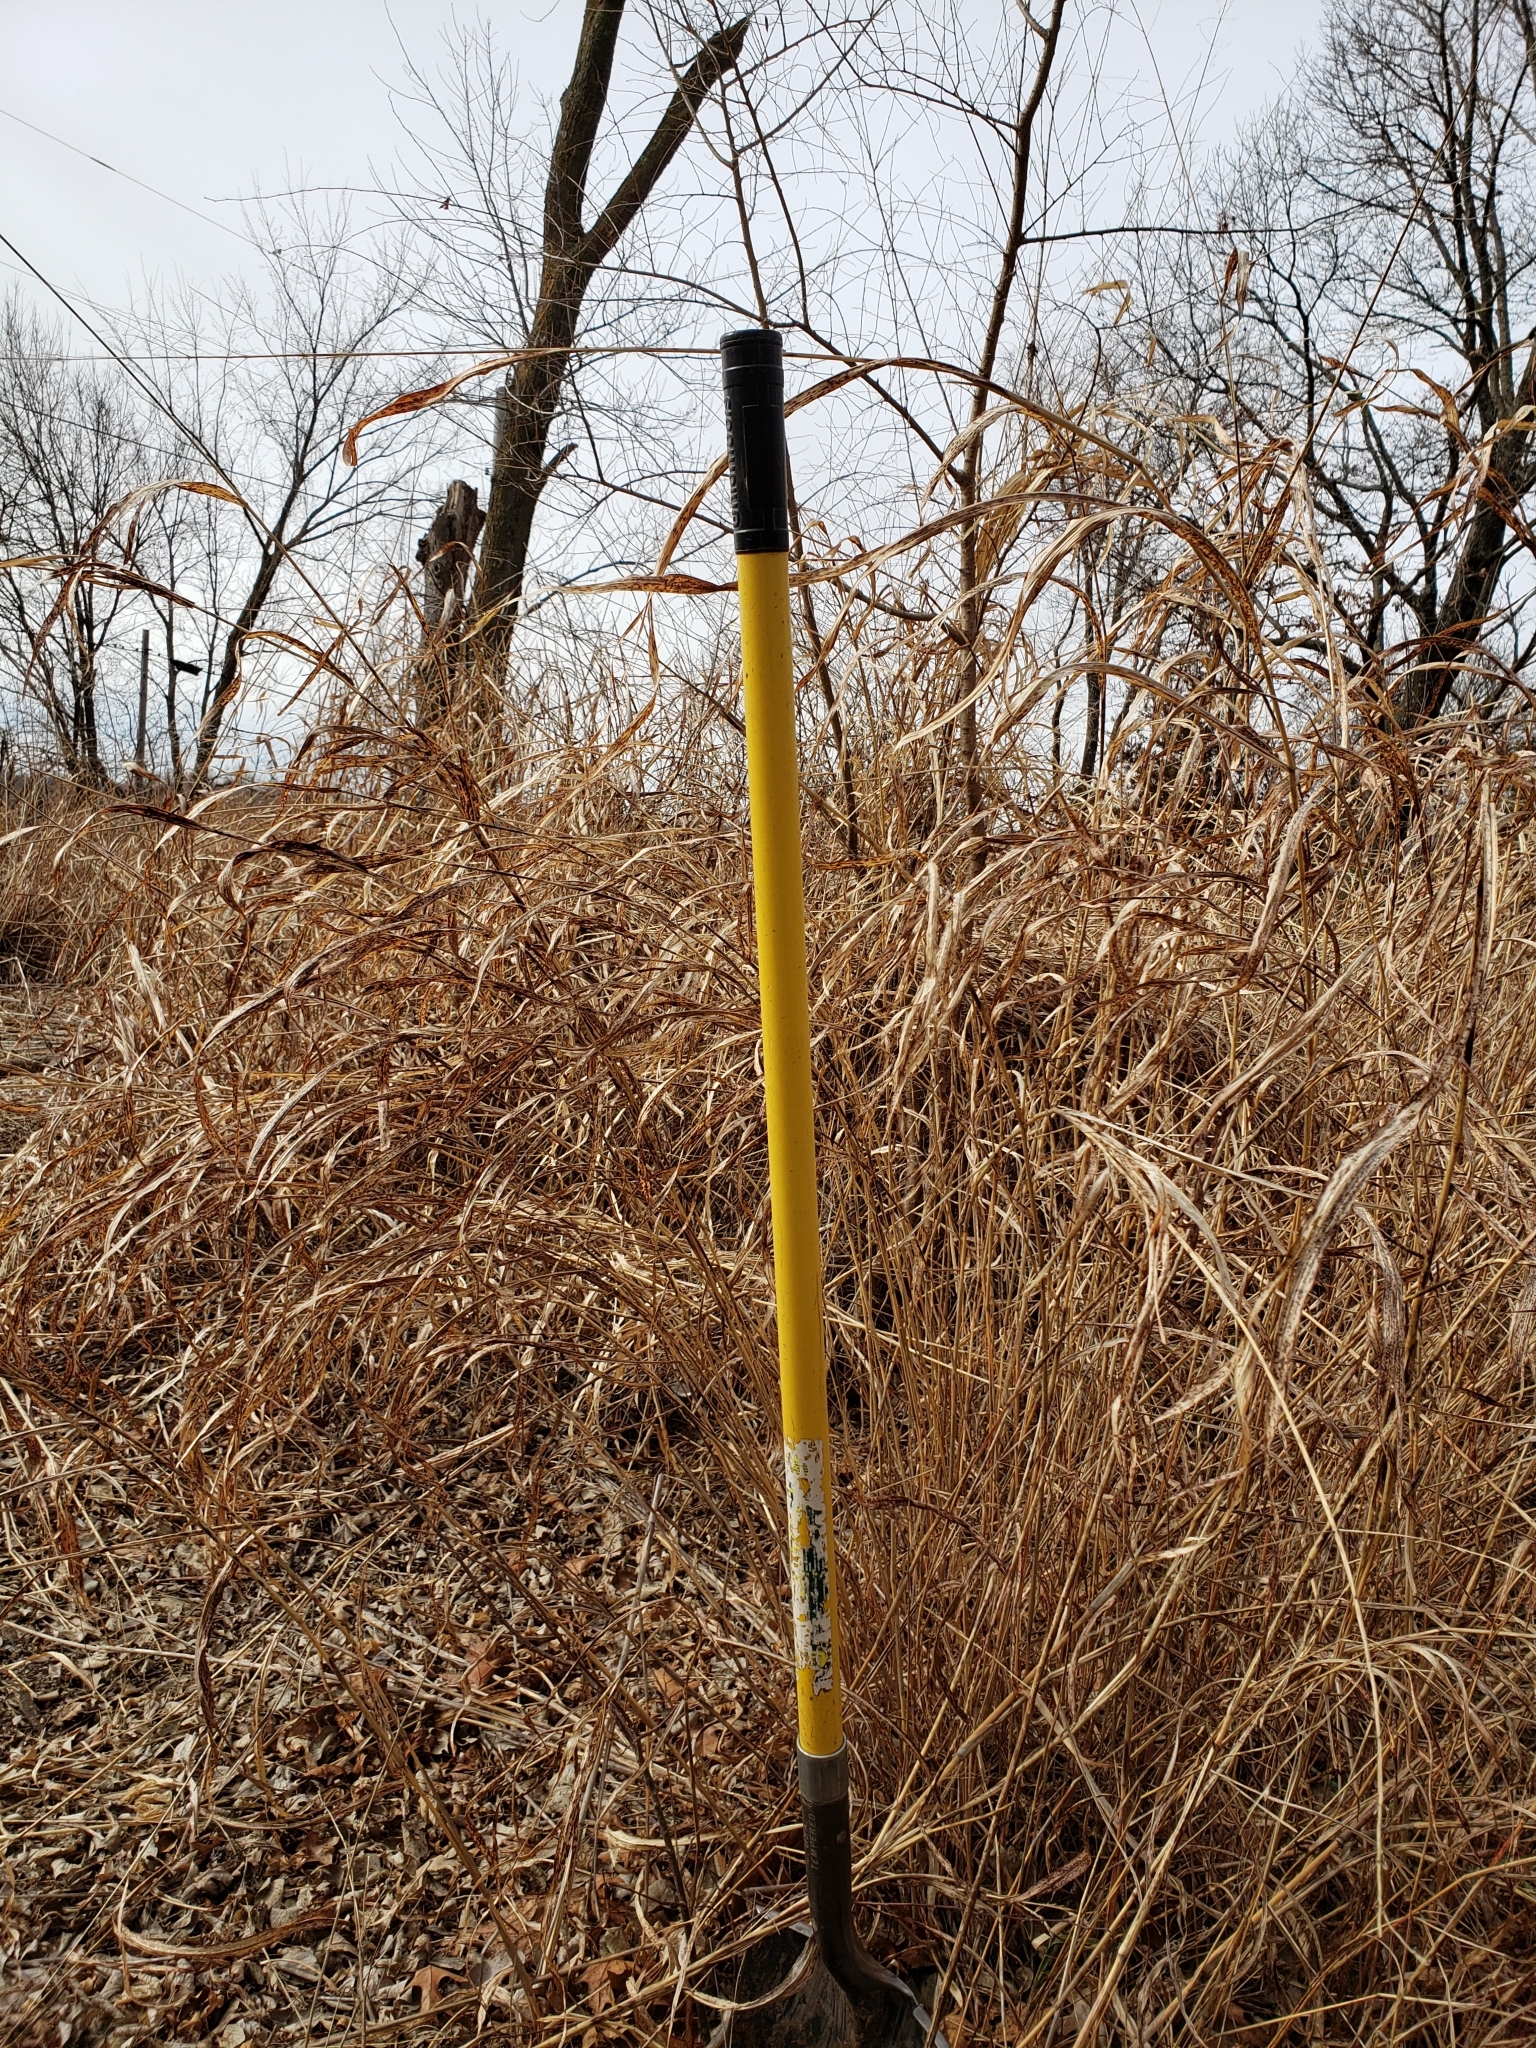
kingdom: Plantae
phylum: Tracheophyta
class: Liliopsida
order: Poales
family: Poaceae
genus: Sorghum
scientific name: Sorghum halepense
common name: Johnson-grass
